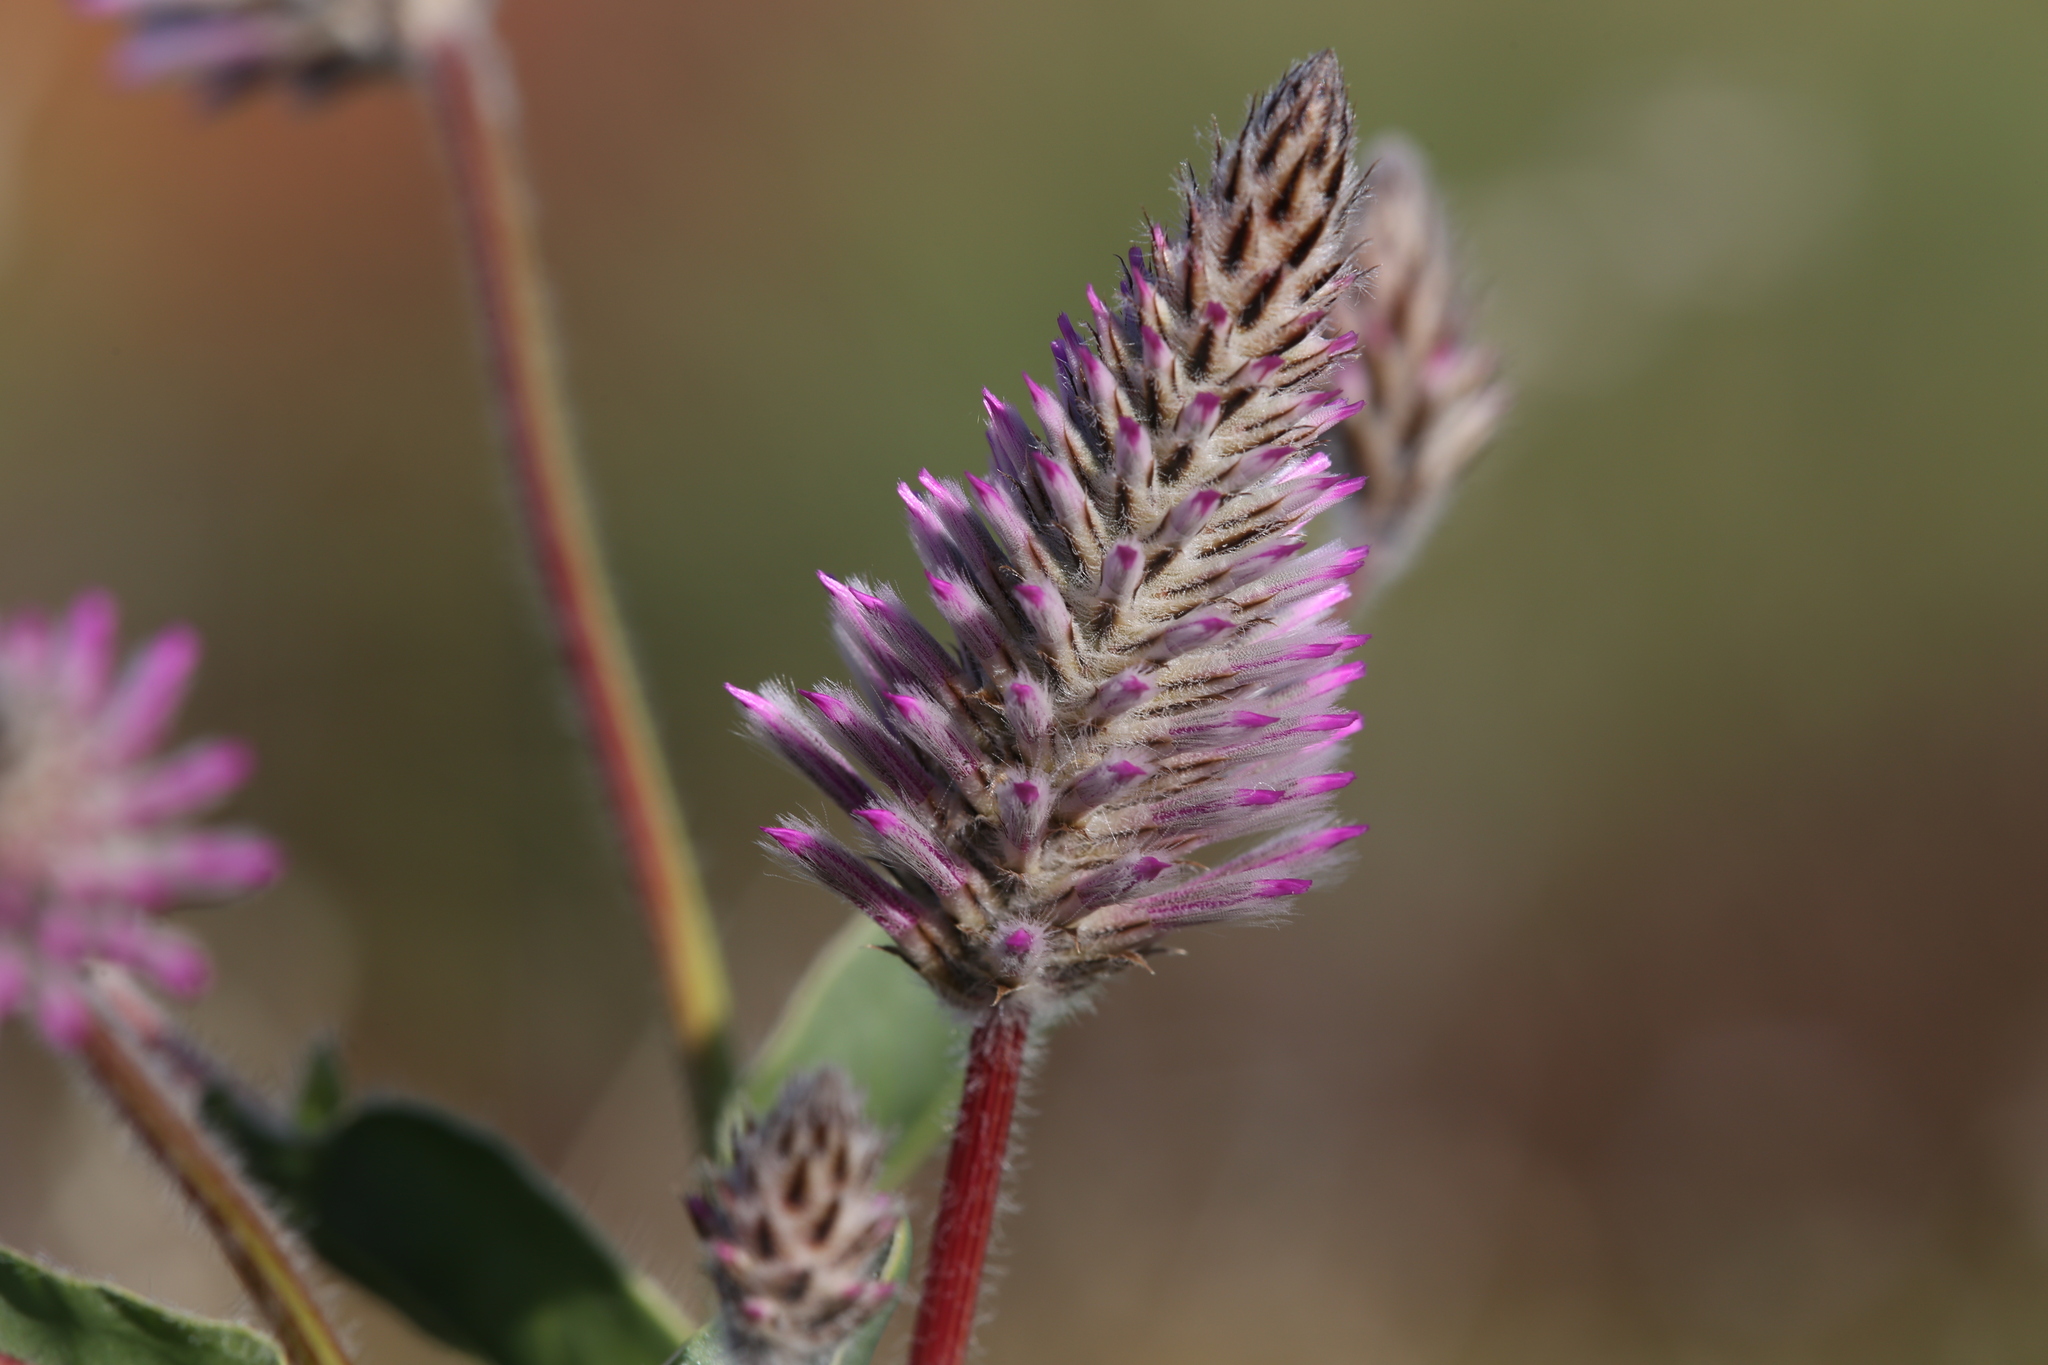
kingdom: Plantae
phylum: Tracheophyta
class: Magnoliopsida
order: Caryophyllales
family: Amaranthaceae
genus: Ptilotus
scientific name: Ptilotus exaltatus
